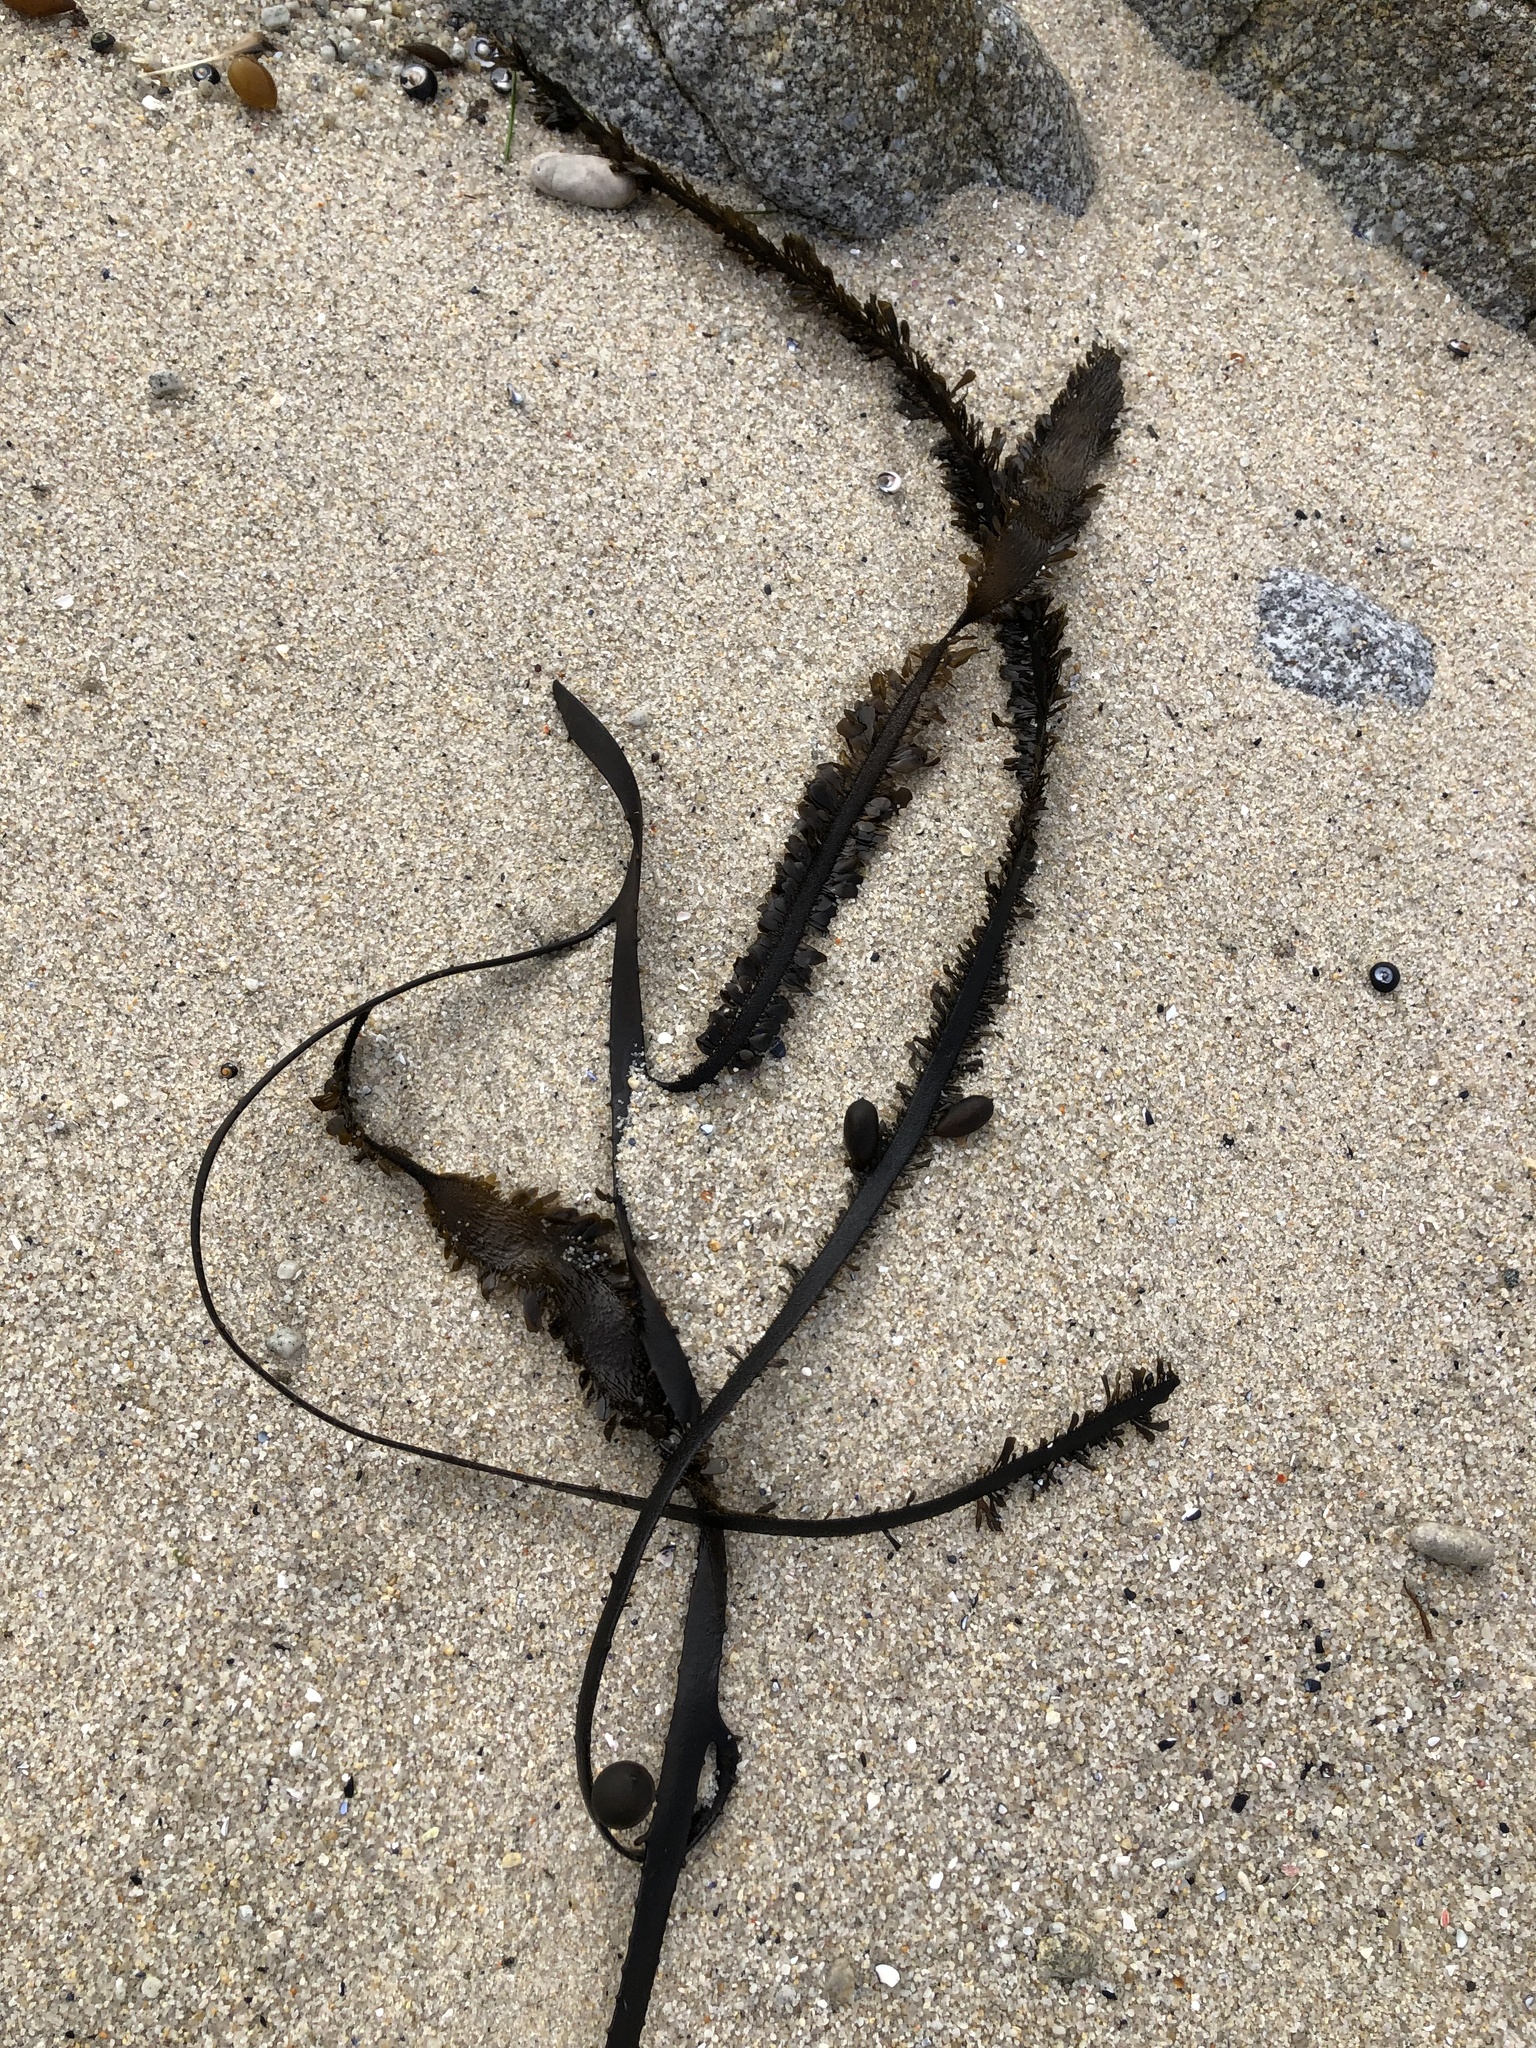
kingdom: Chromista
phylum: Ochrophyta
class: Phaeophyceae
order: Laminariales
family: Lessoniaceae
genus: Egregia
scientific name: Egregia menziesii
